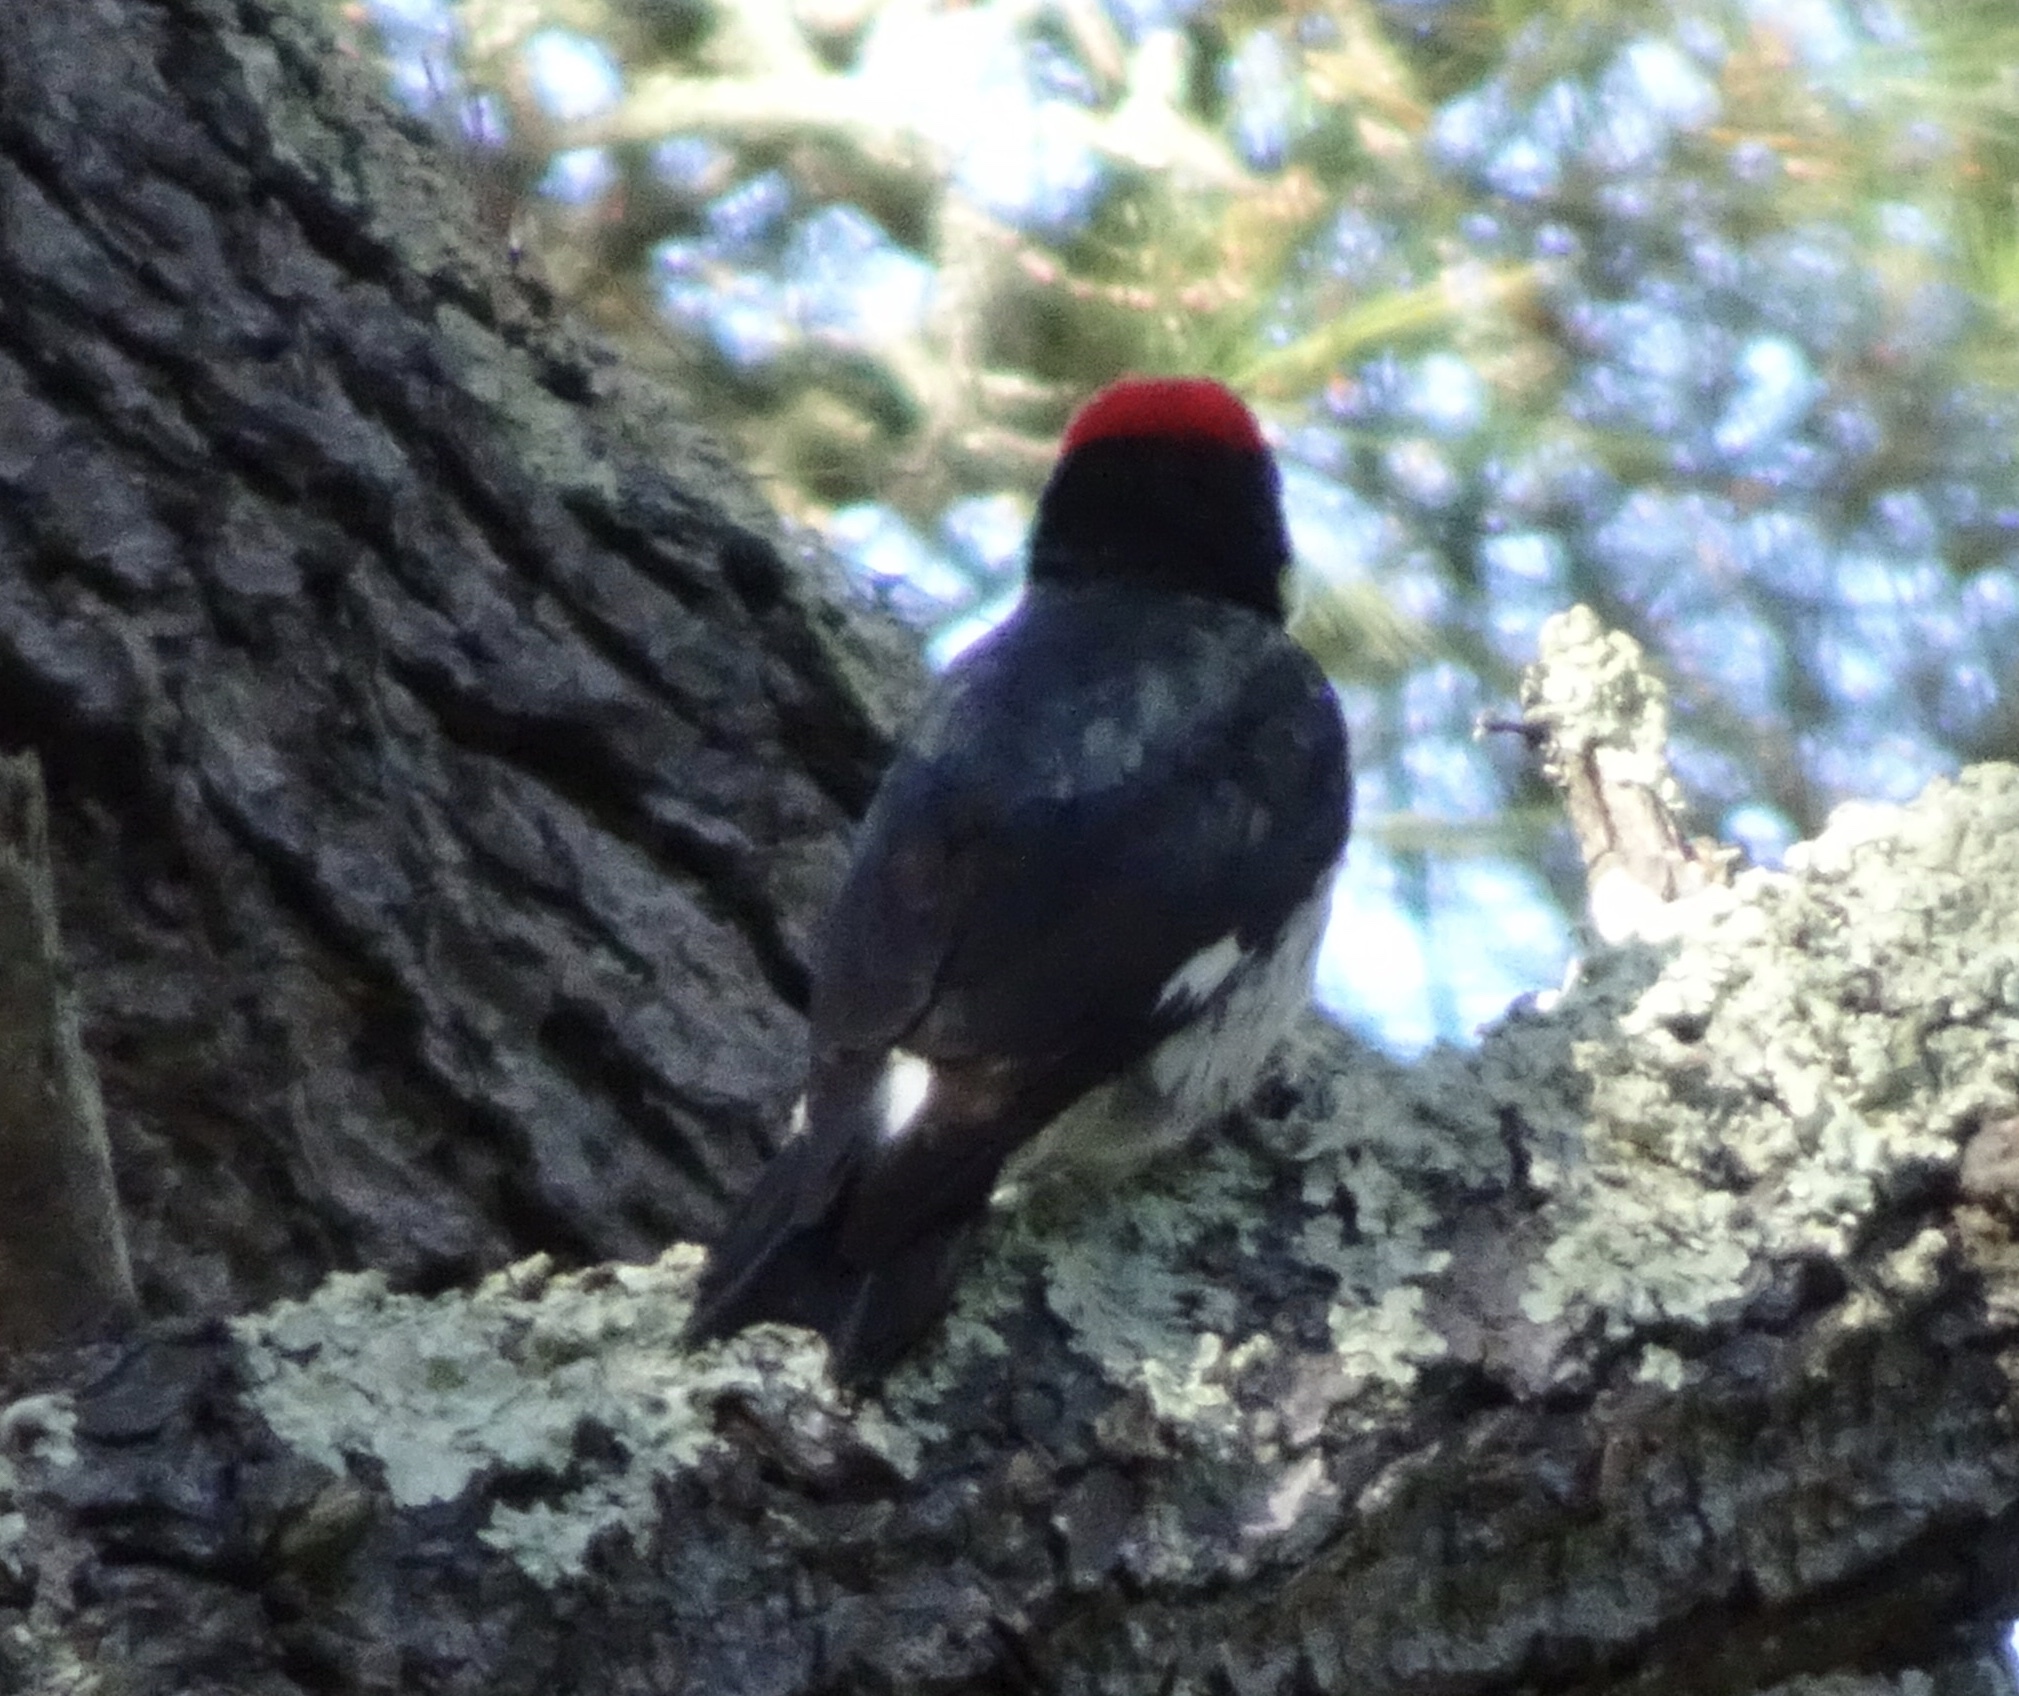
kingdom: Animalia
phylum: Chordata
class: Aves
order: Piciformes
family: Picidae
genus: Melanerpes
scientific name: Melanerpes formicivorus
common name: Acorn woodpecker
